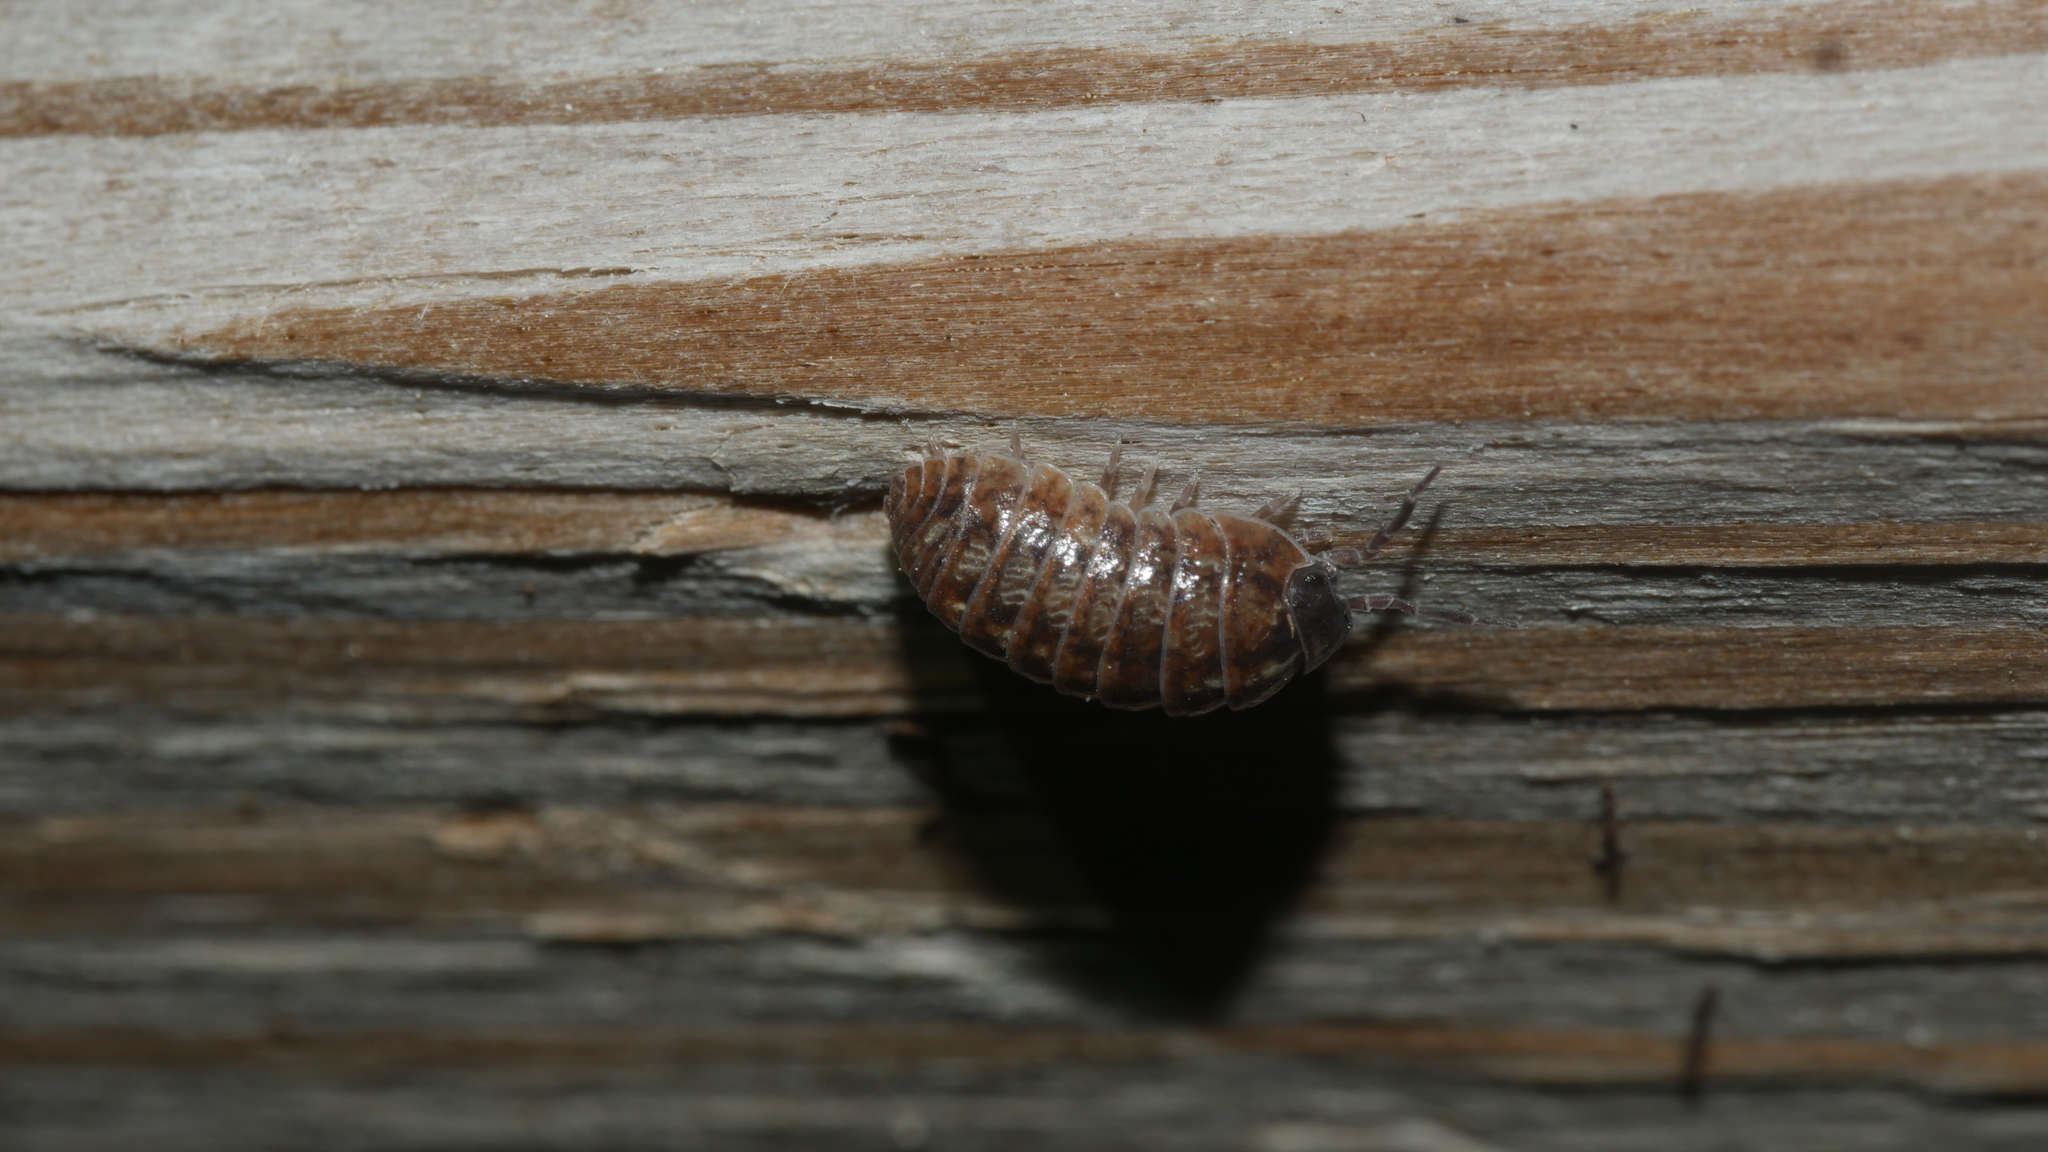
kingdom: Animalia
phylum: Arthropoda
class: Malacostraca
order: Isopoda
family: Armadillidiidae
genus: Armadillidium
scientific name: Armadillidium vulgare
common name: Common pill woodlouse
